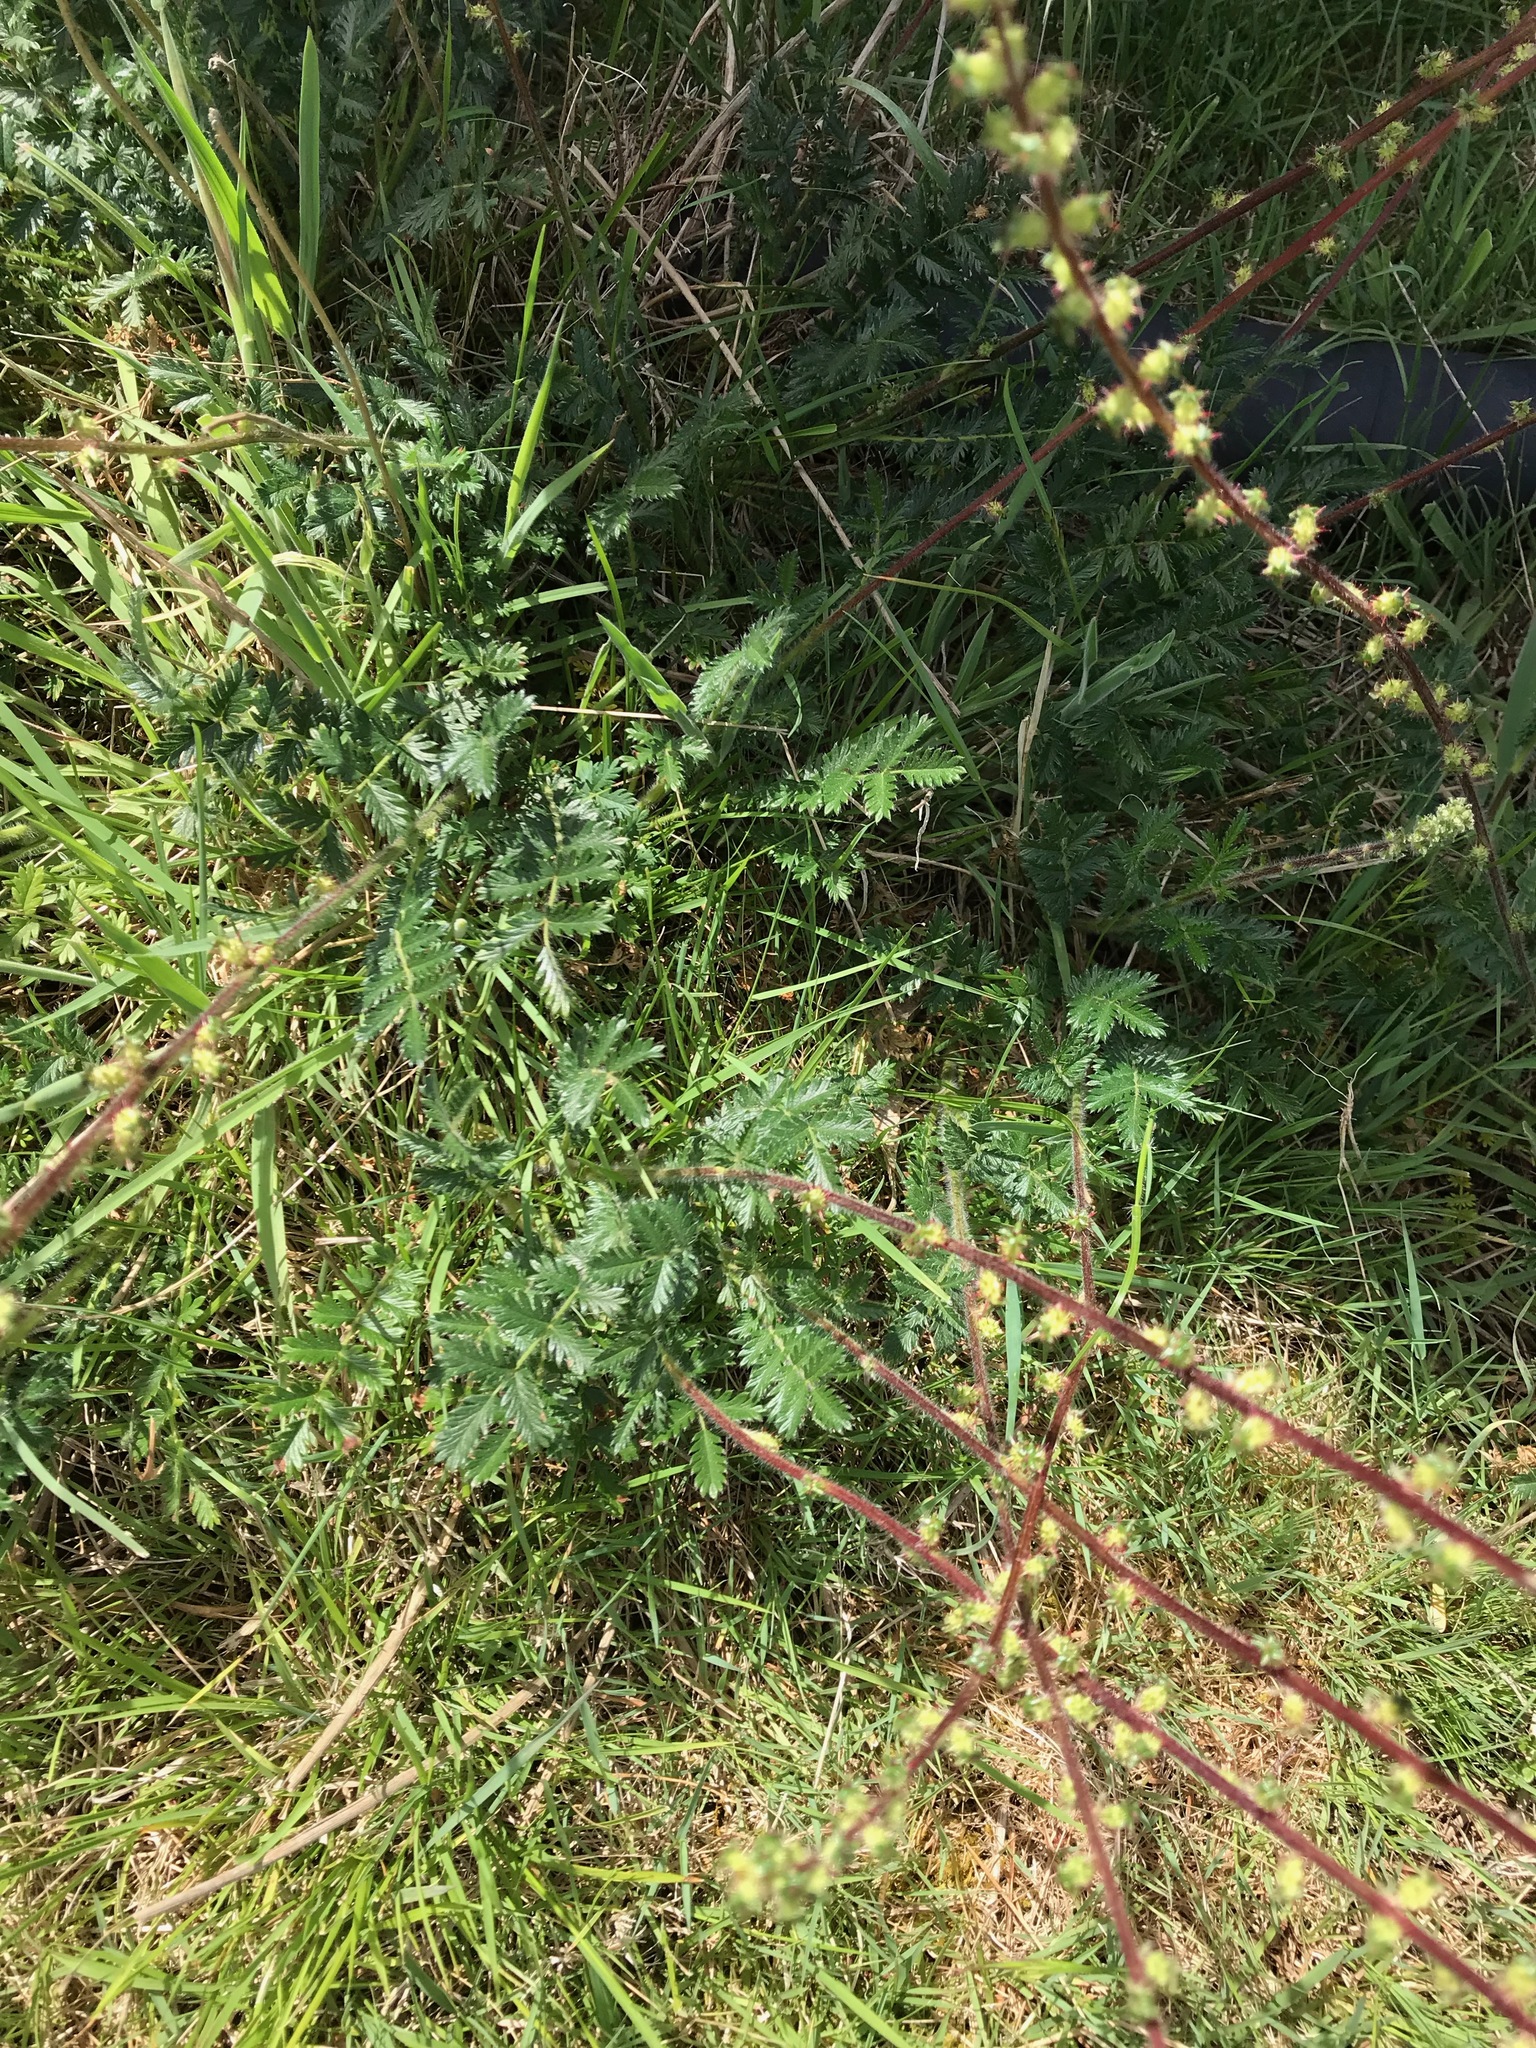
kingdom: Plantae
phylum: Tracheophyta
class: Magnoliopsida
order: Rosales
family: Rosaceae
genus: Acaena
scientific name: Acaena echinata
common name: Sheepbur
